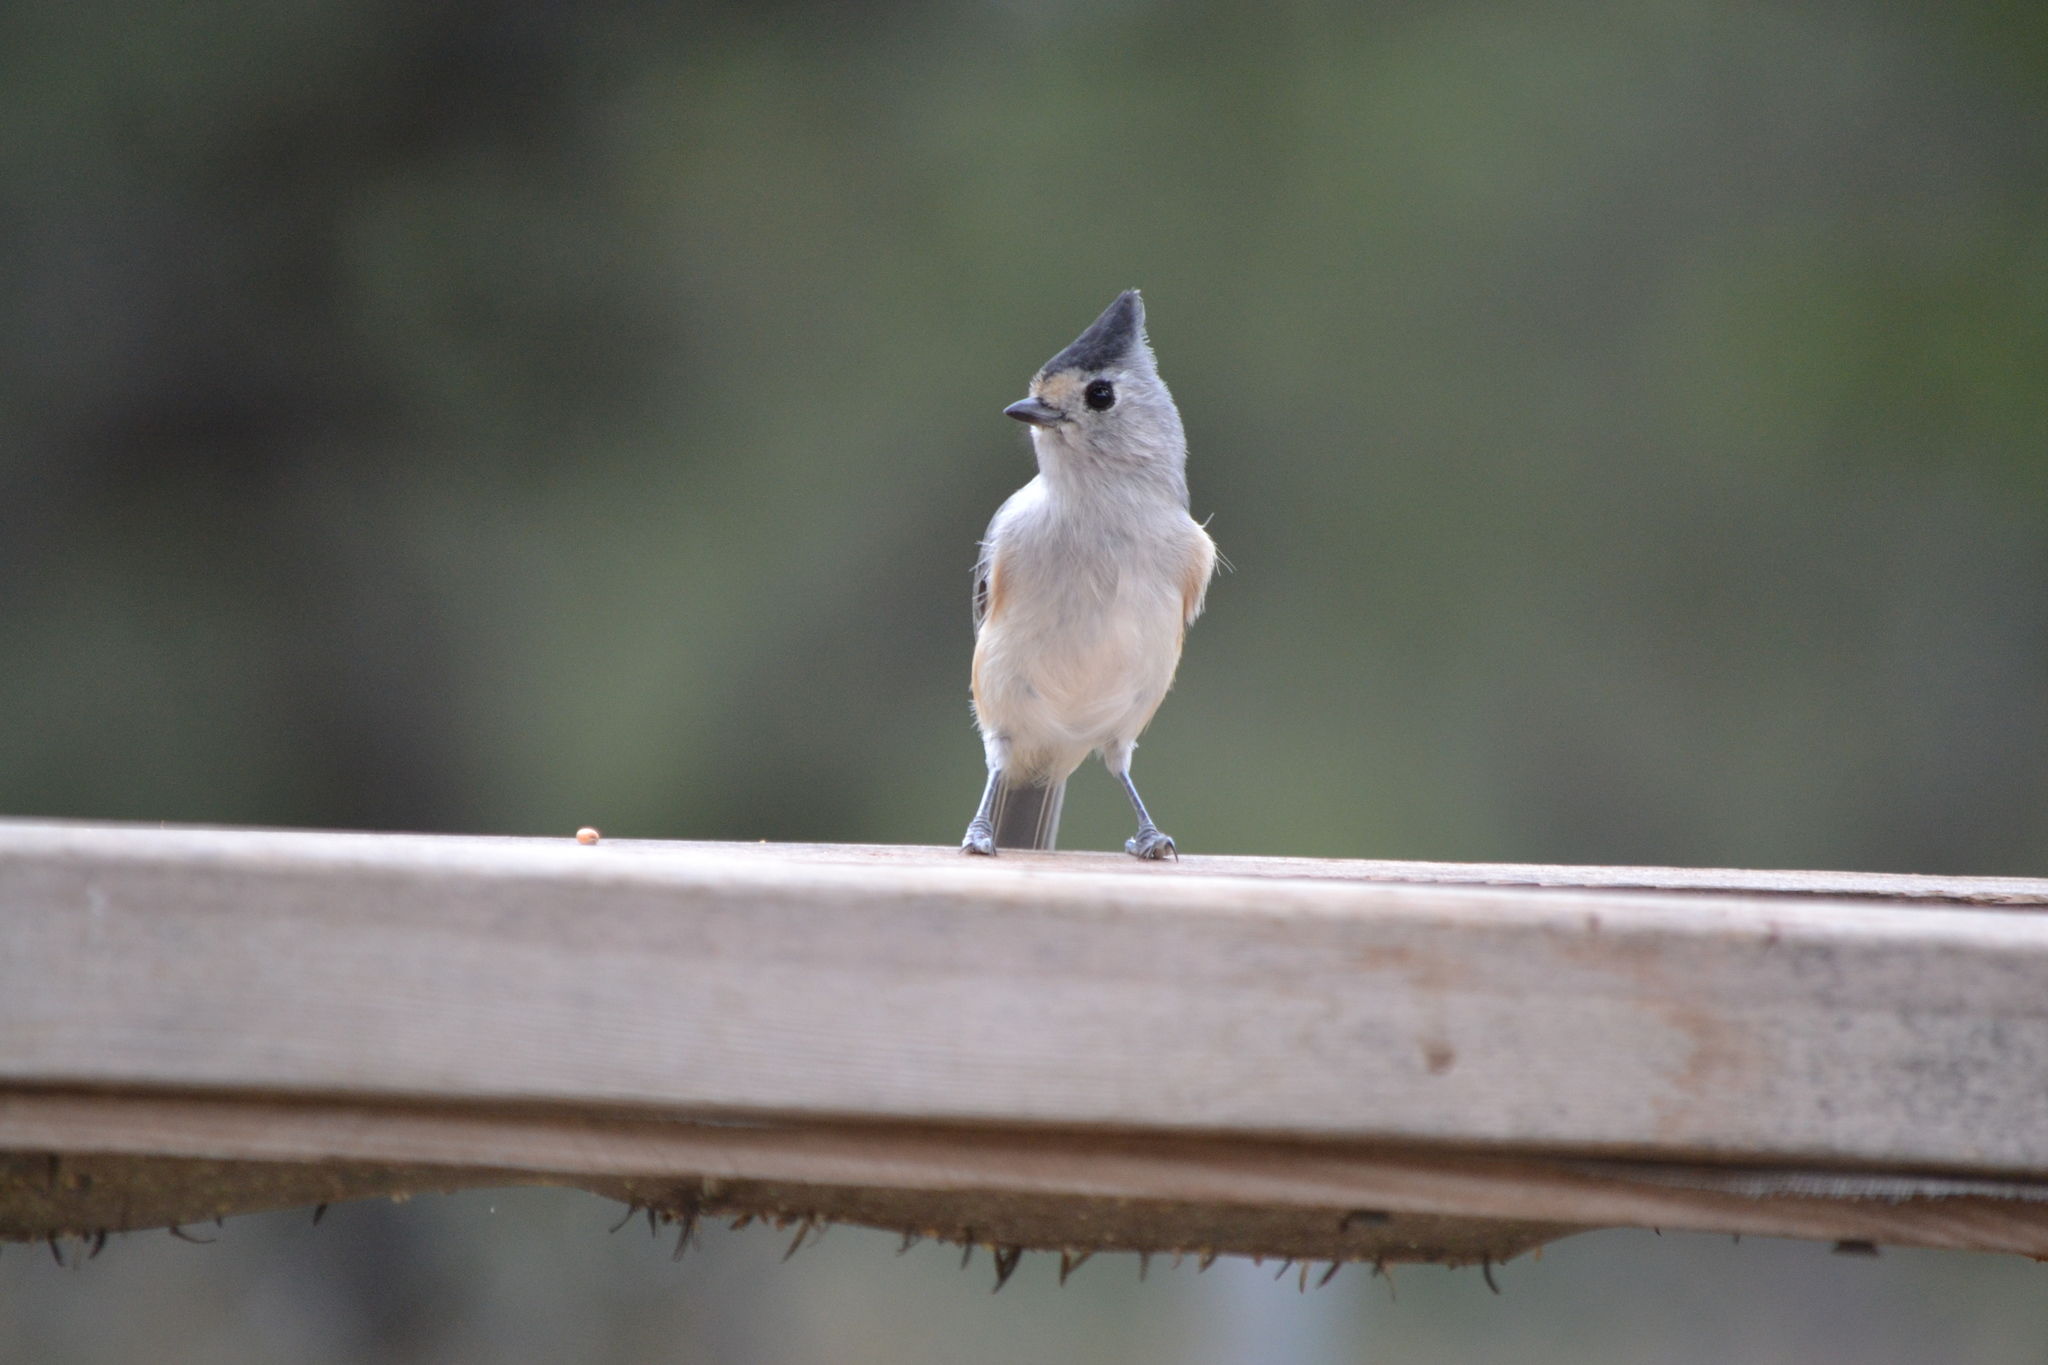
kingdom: Animalia
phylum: Chordata
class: Aves
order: Passeriformes
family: Paridae
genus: Baeolophus
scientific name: Baeolophus atricristatus
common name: Black-crested titmouse
